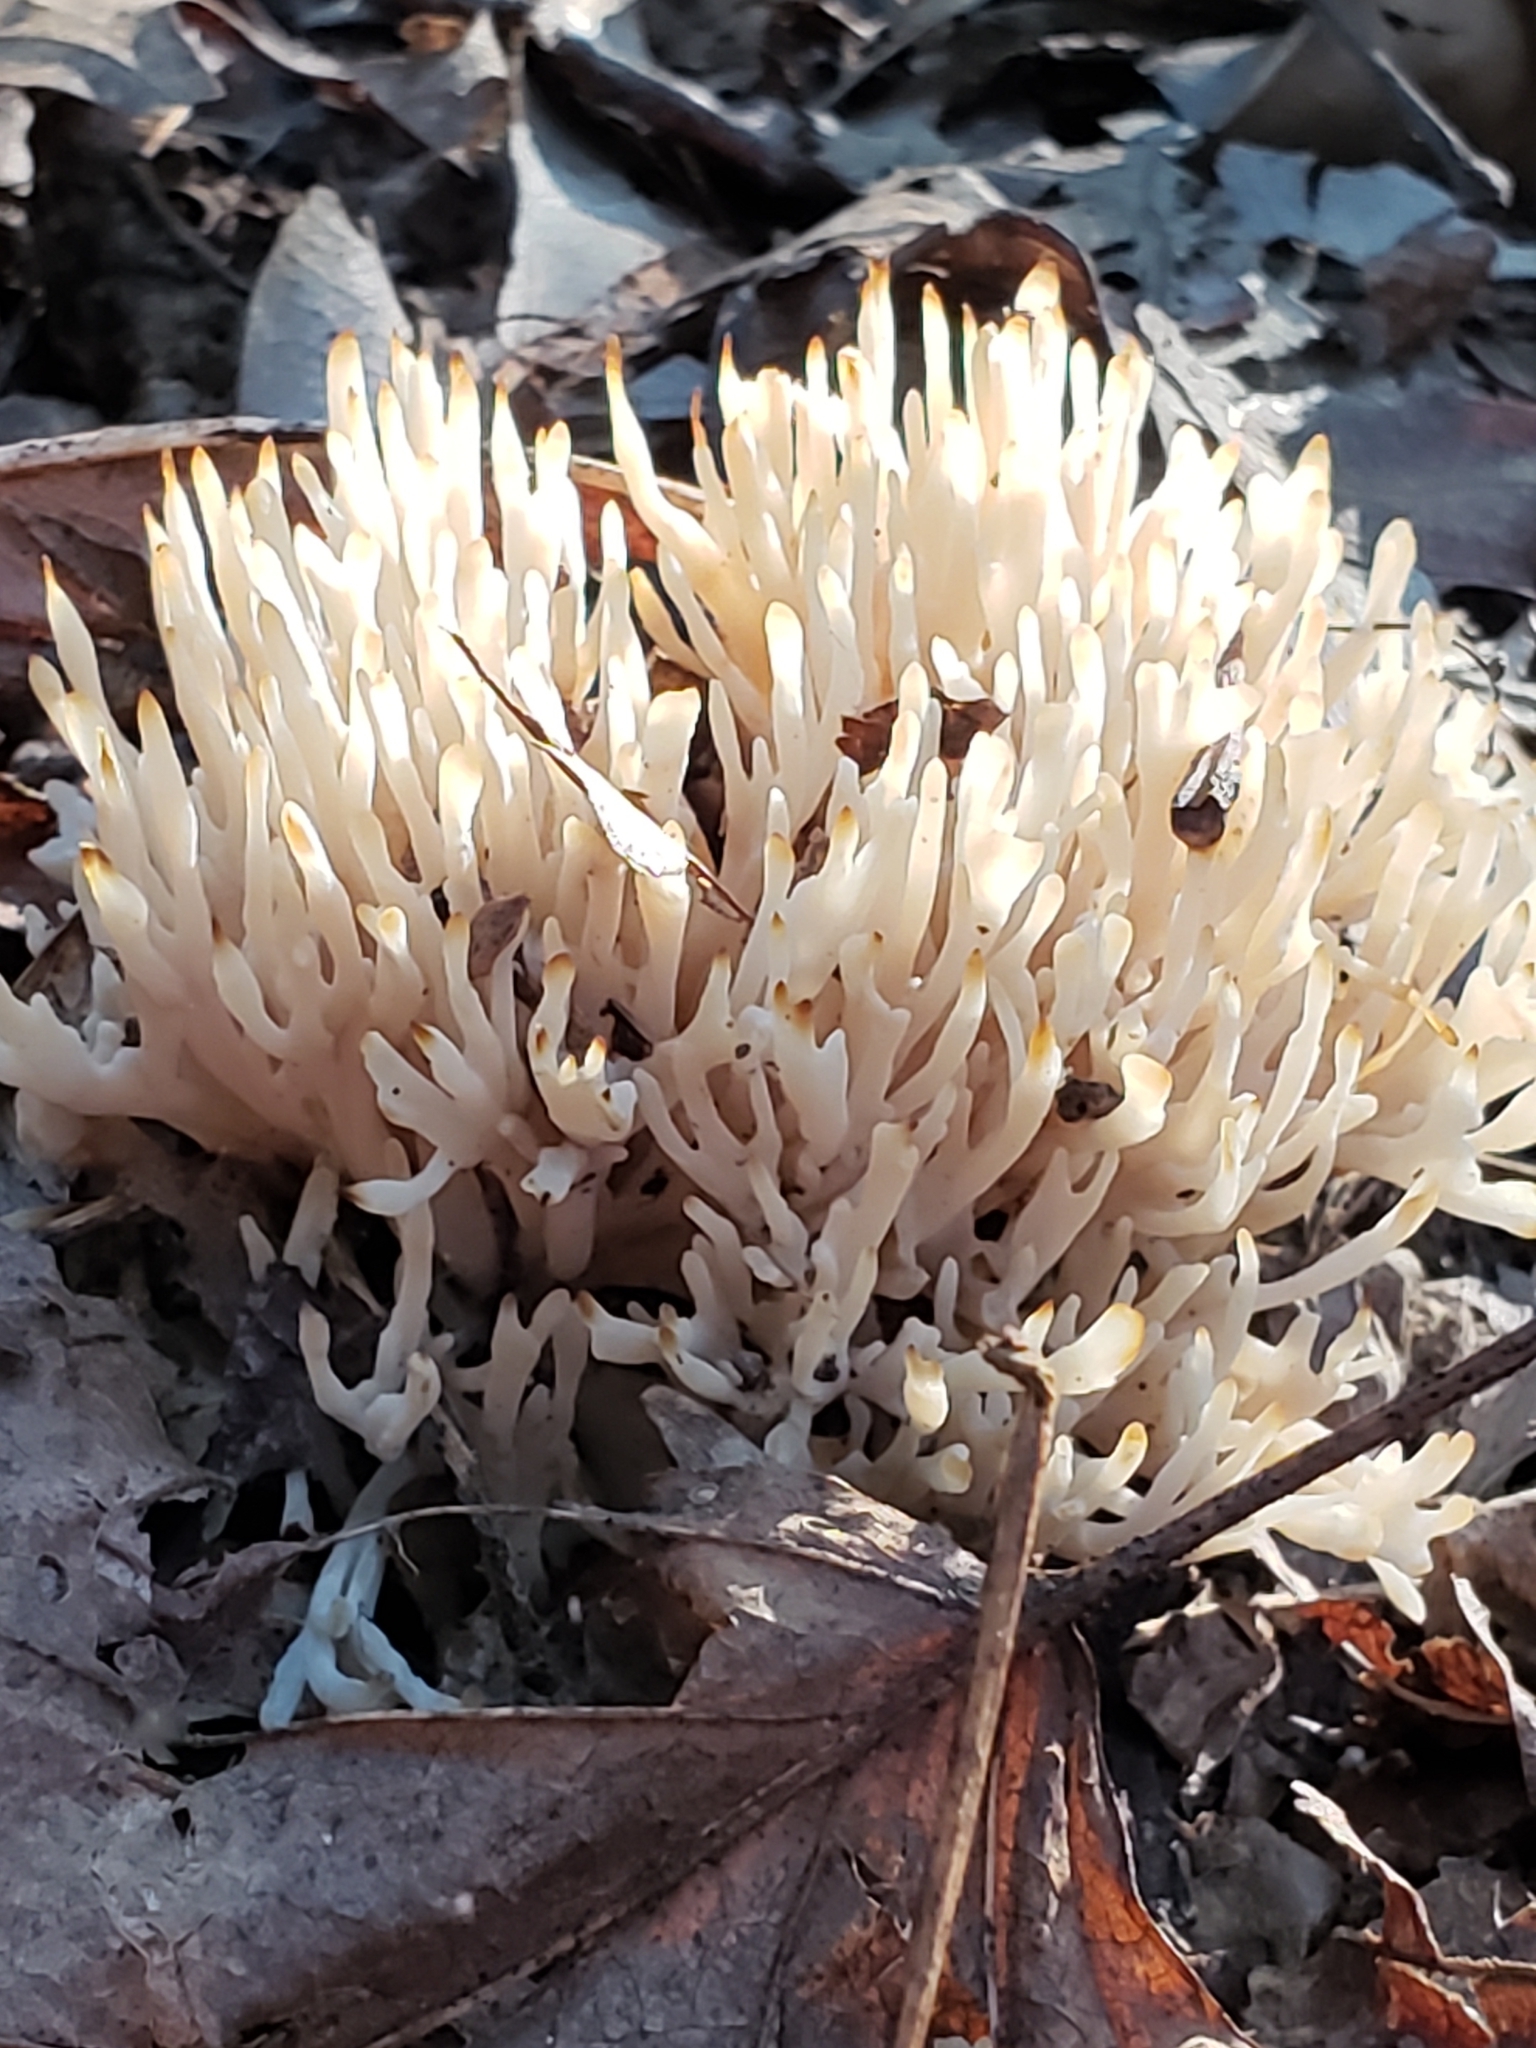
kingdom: Fungi
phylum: Basidiomycota
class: Agaricomycetes
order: Agaricales
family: Clavariaceae
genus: Ramariopsis
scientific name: Ramariopsis kunzei
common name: Ivory coral
